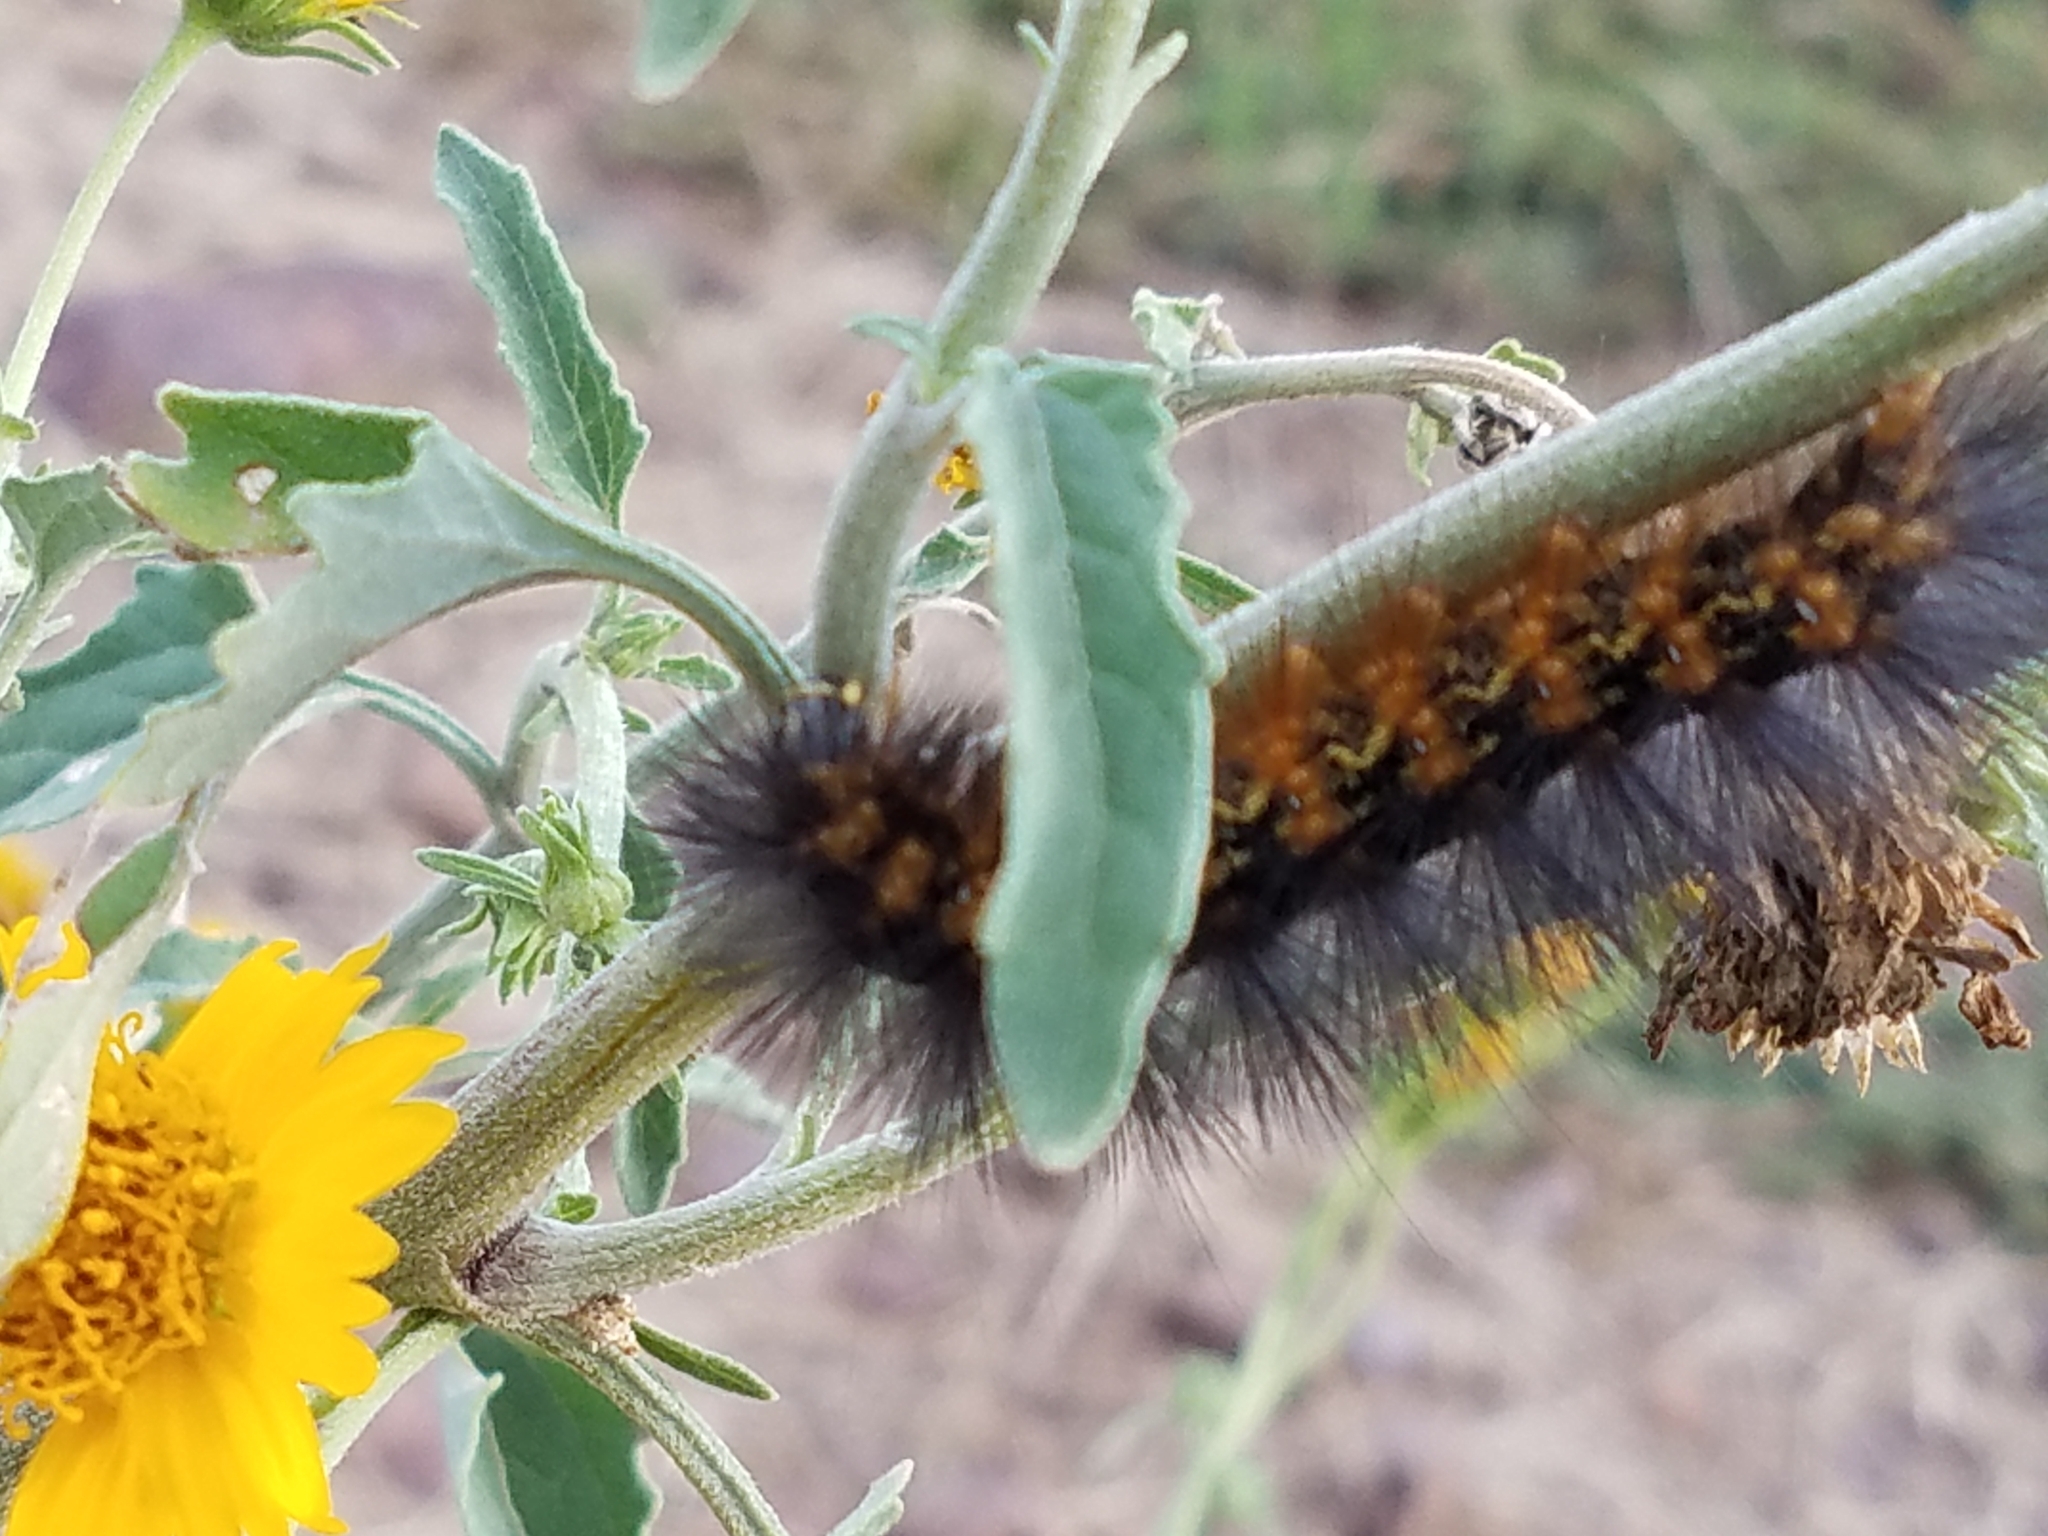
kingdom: Animalia
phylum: Arthropoda
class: Insecta
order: Lepidoptera
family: Erebidae
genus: Estigmene
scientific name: Estigmene
